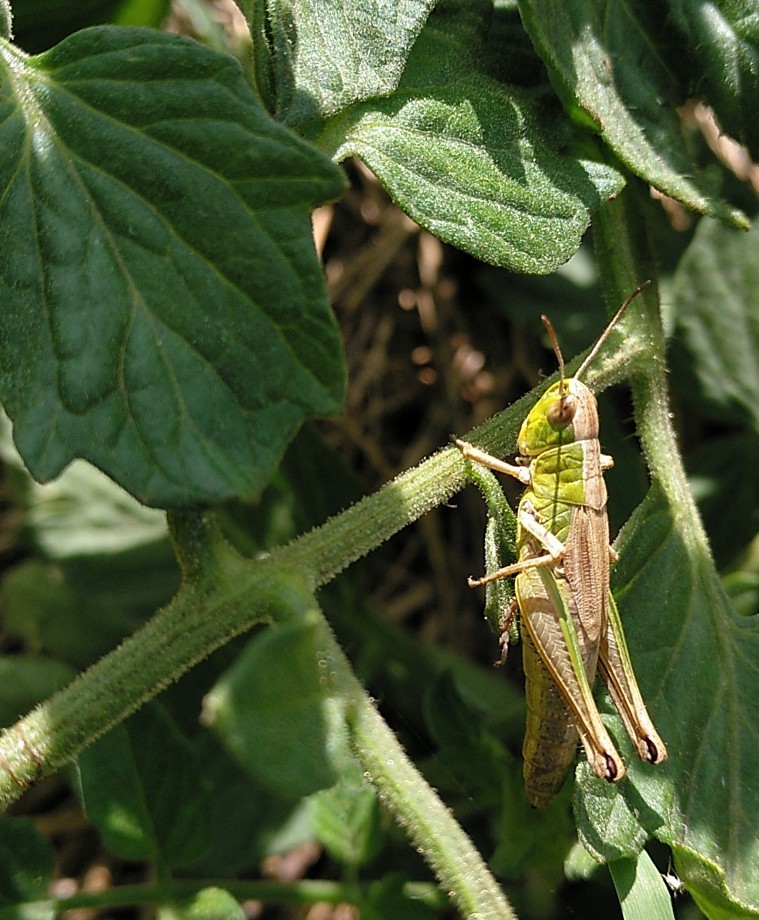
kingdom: Animalia
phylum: Arthropoda
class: Insecta
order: Orthoptera
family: Acrididae
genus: Pseudochorthippus
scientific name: Pseudochorthippus parallelus
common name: Meadow grasshopper
